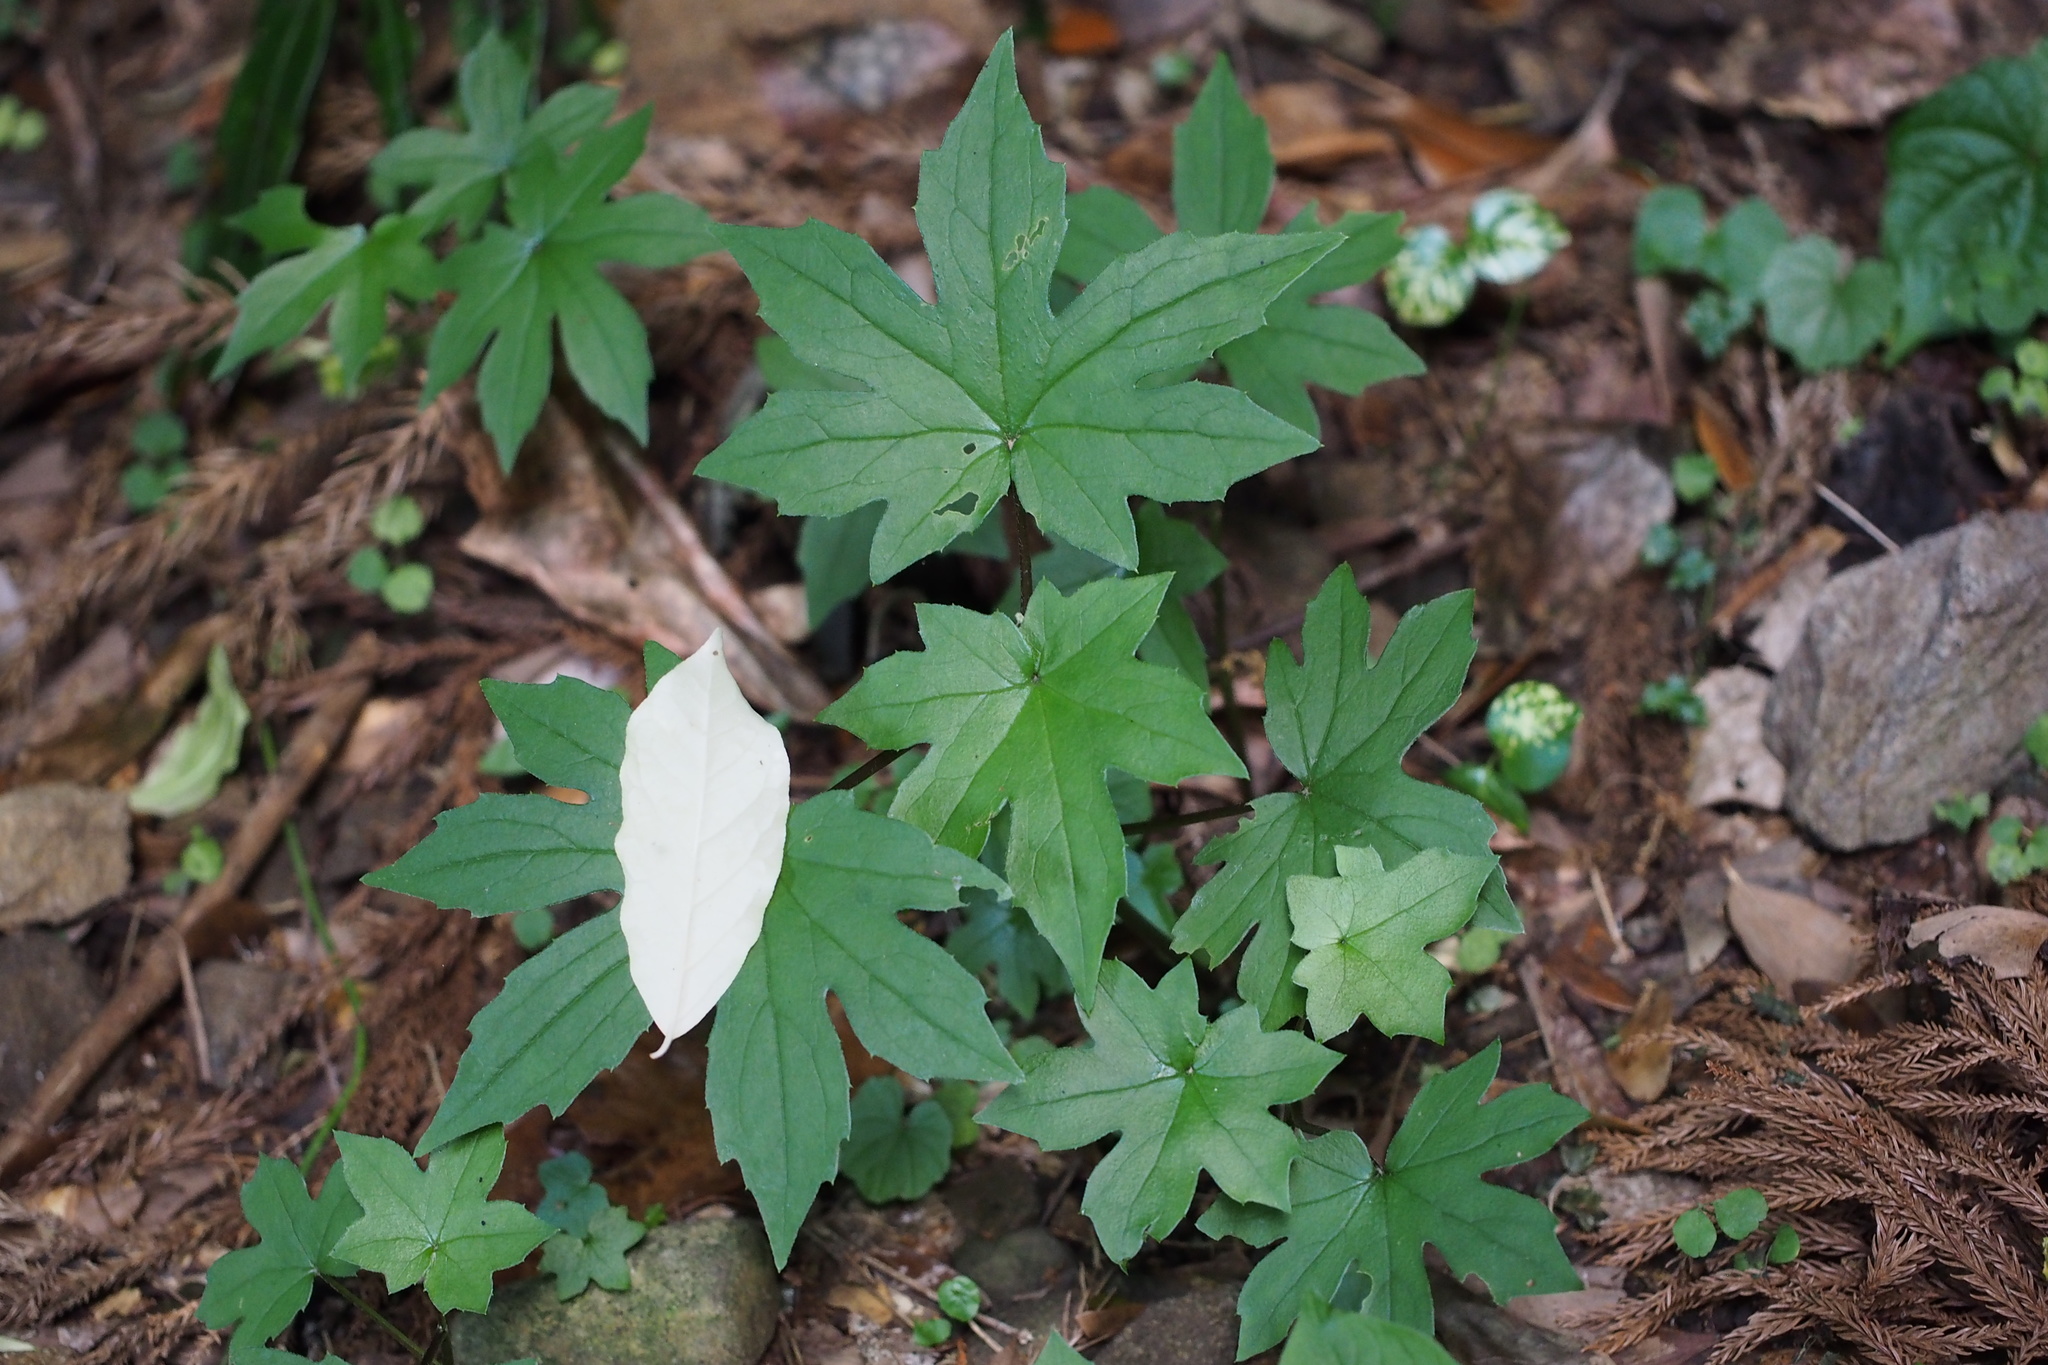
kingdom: Plantae
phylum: Tracheophyta
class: Magnoliopsida
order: Asterales
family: Asteraceae
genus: Japonicalia
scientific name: Japonicalia delphiniifolia
